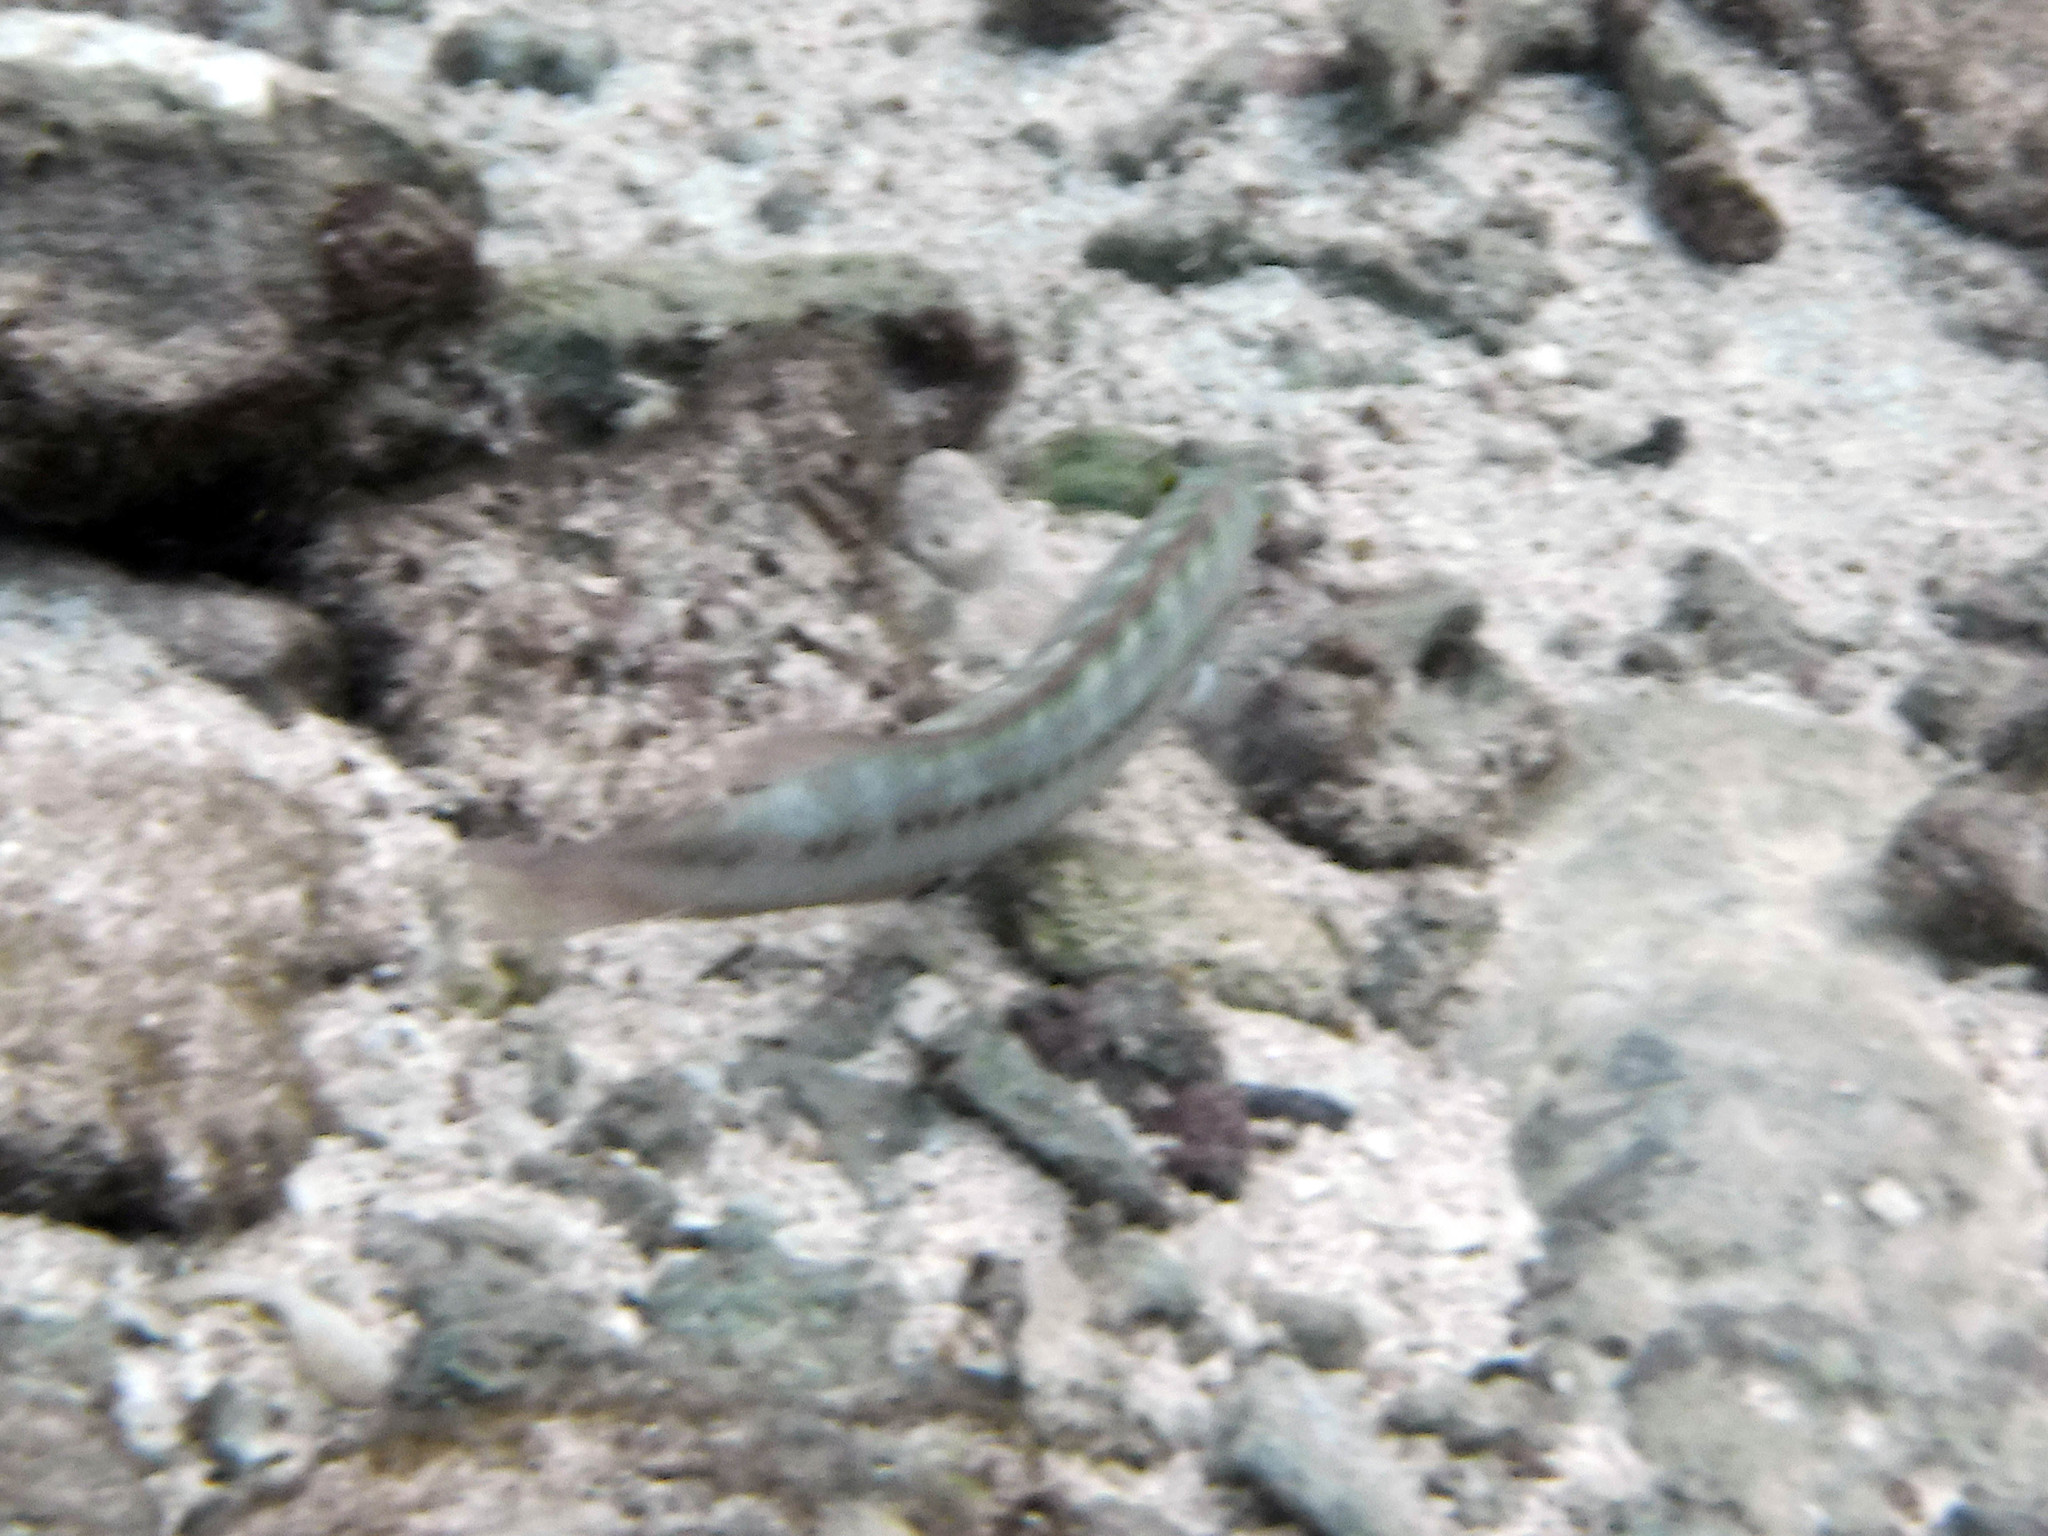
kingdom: Animalia
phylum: Chordata
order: Perciformes
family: Labridae
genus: Halichoeres
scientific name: Halichoeres bivittatus
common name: Slippery dick
